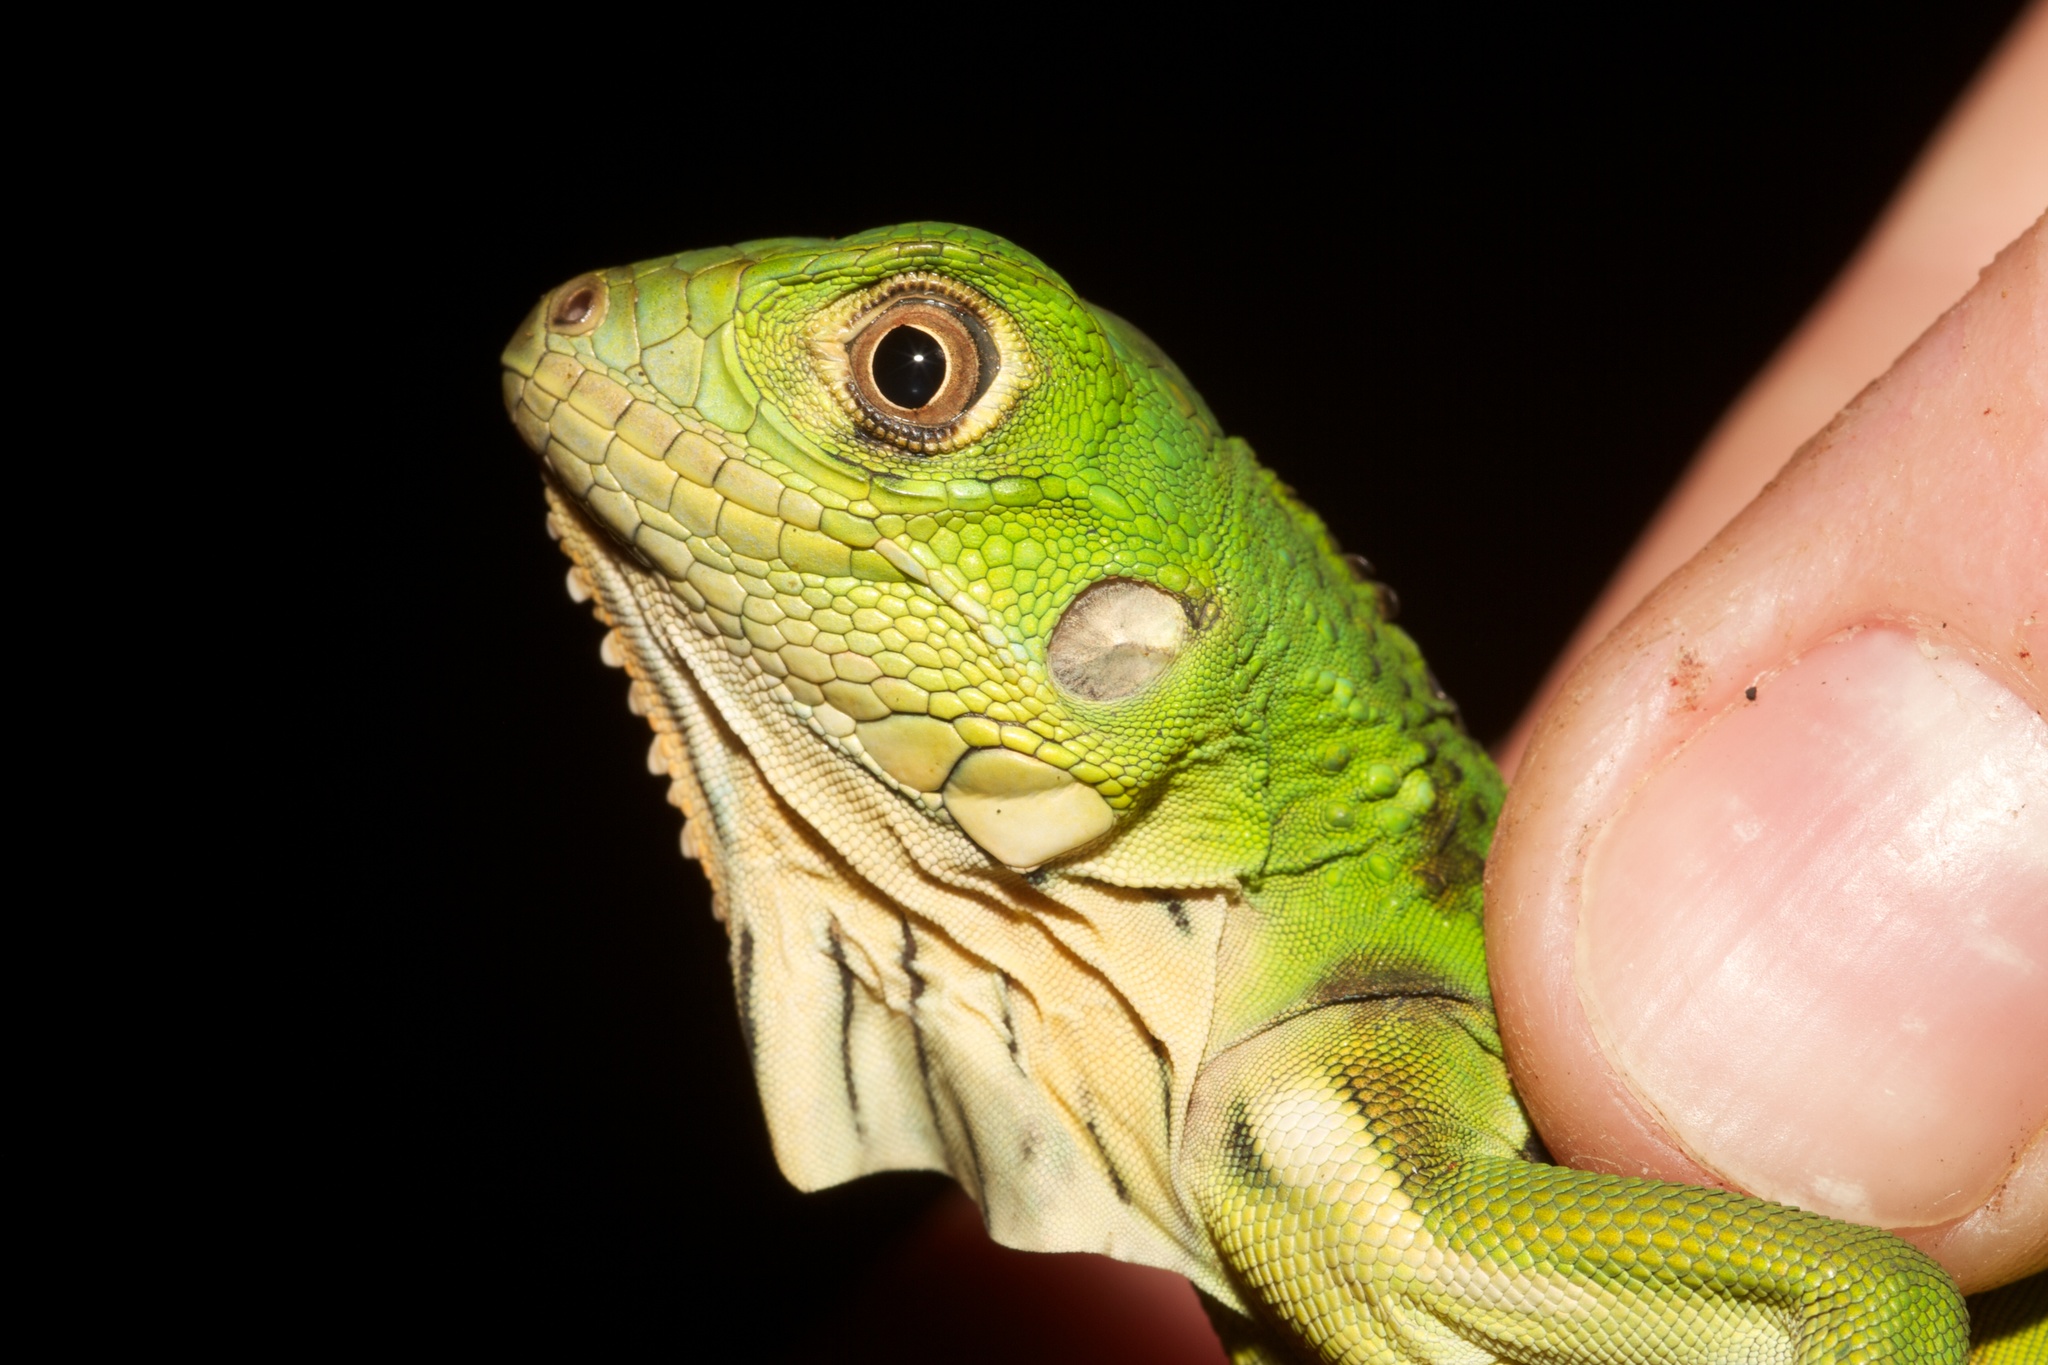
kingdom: Animalia
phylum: Chordata
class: Squamata
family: Iguanidae
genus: Iguana
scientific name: Iguana iguana
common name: Green iguana
